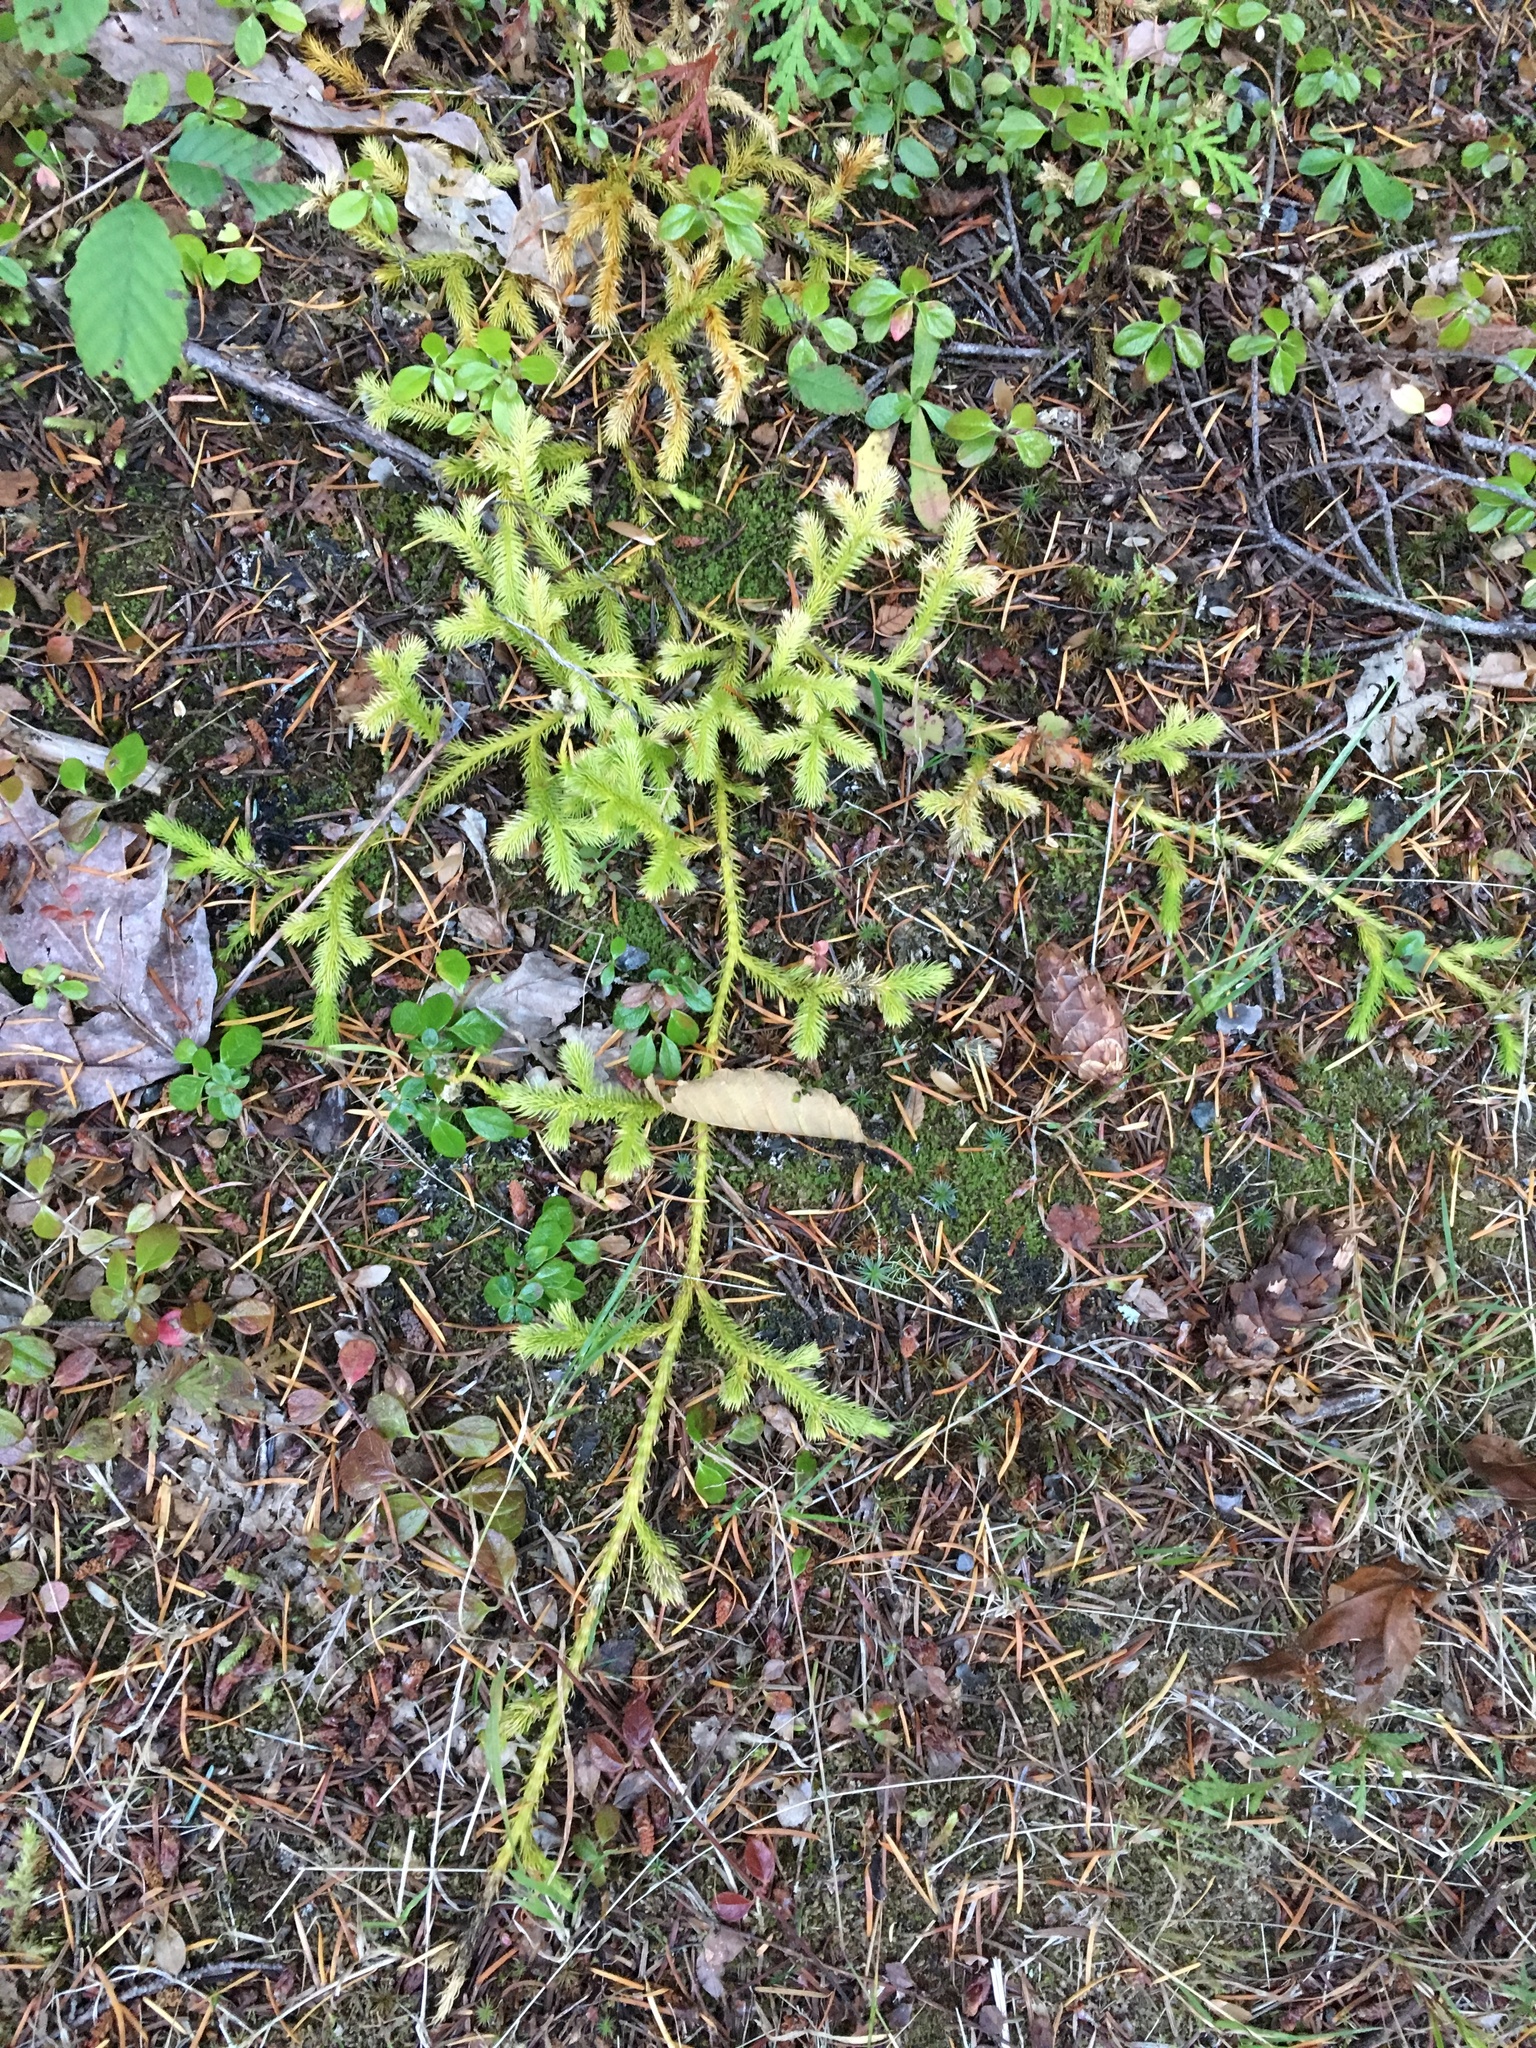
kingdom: Plantae
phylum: Tracheophyta
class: Lycopodiopsida
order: Lycopodiales
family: Lycopodiaceae
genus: Lycopodium
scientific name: Lycopodium clavatum
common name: Stag's-horn clubmoss
